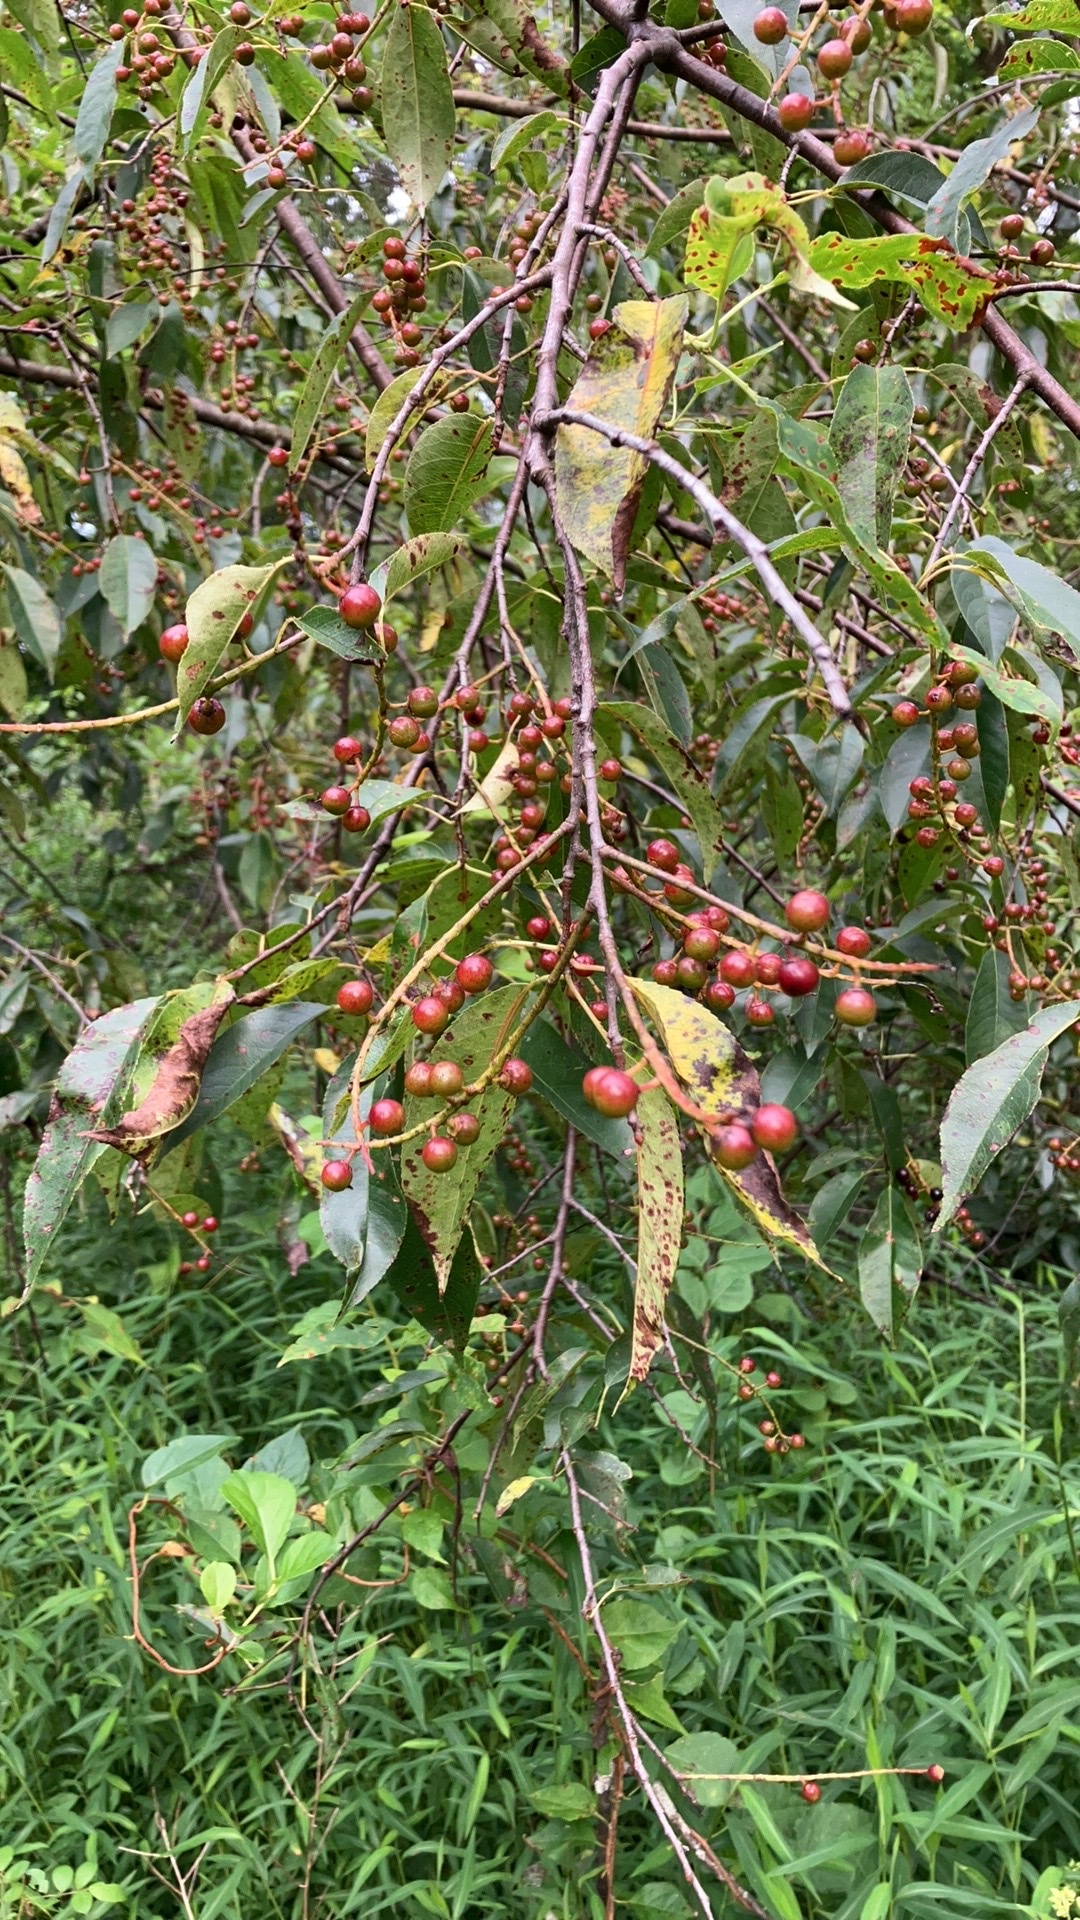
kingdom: Plantae
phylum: Tracheophyta
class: Magnoliopsida
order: Rosales
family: Rosaceae
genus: Prunus
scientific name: Prunus serotina
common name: Black cherry
